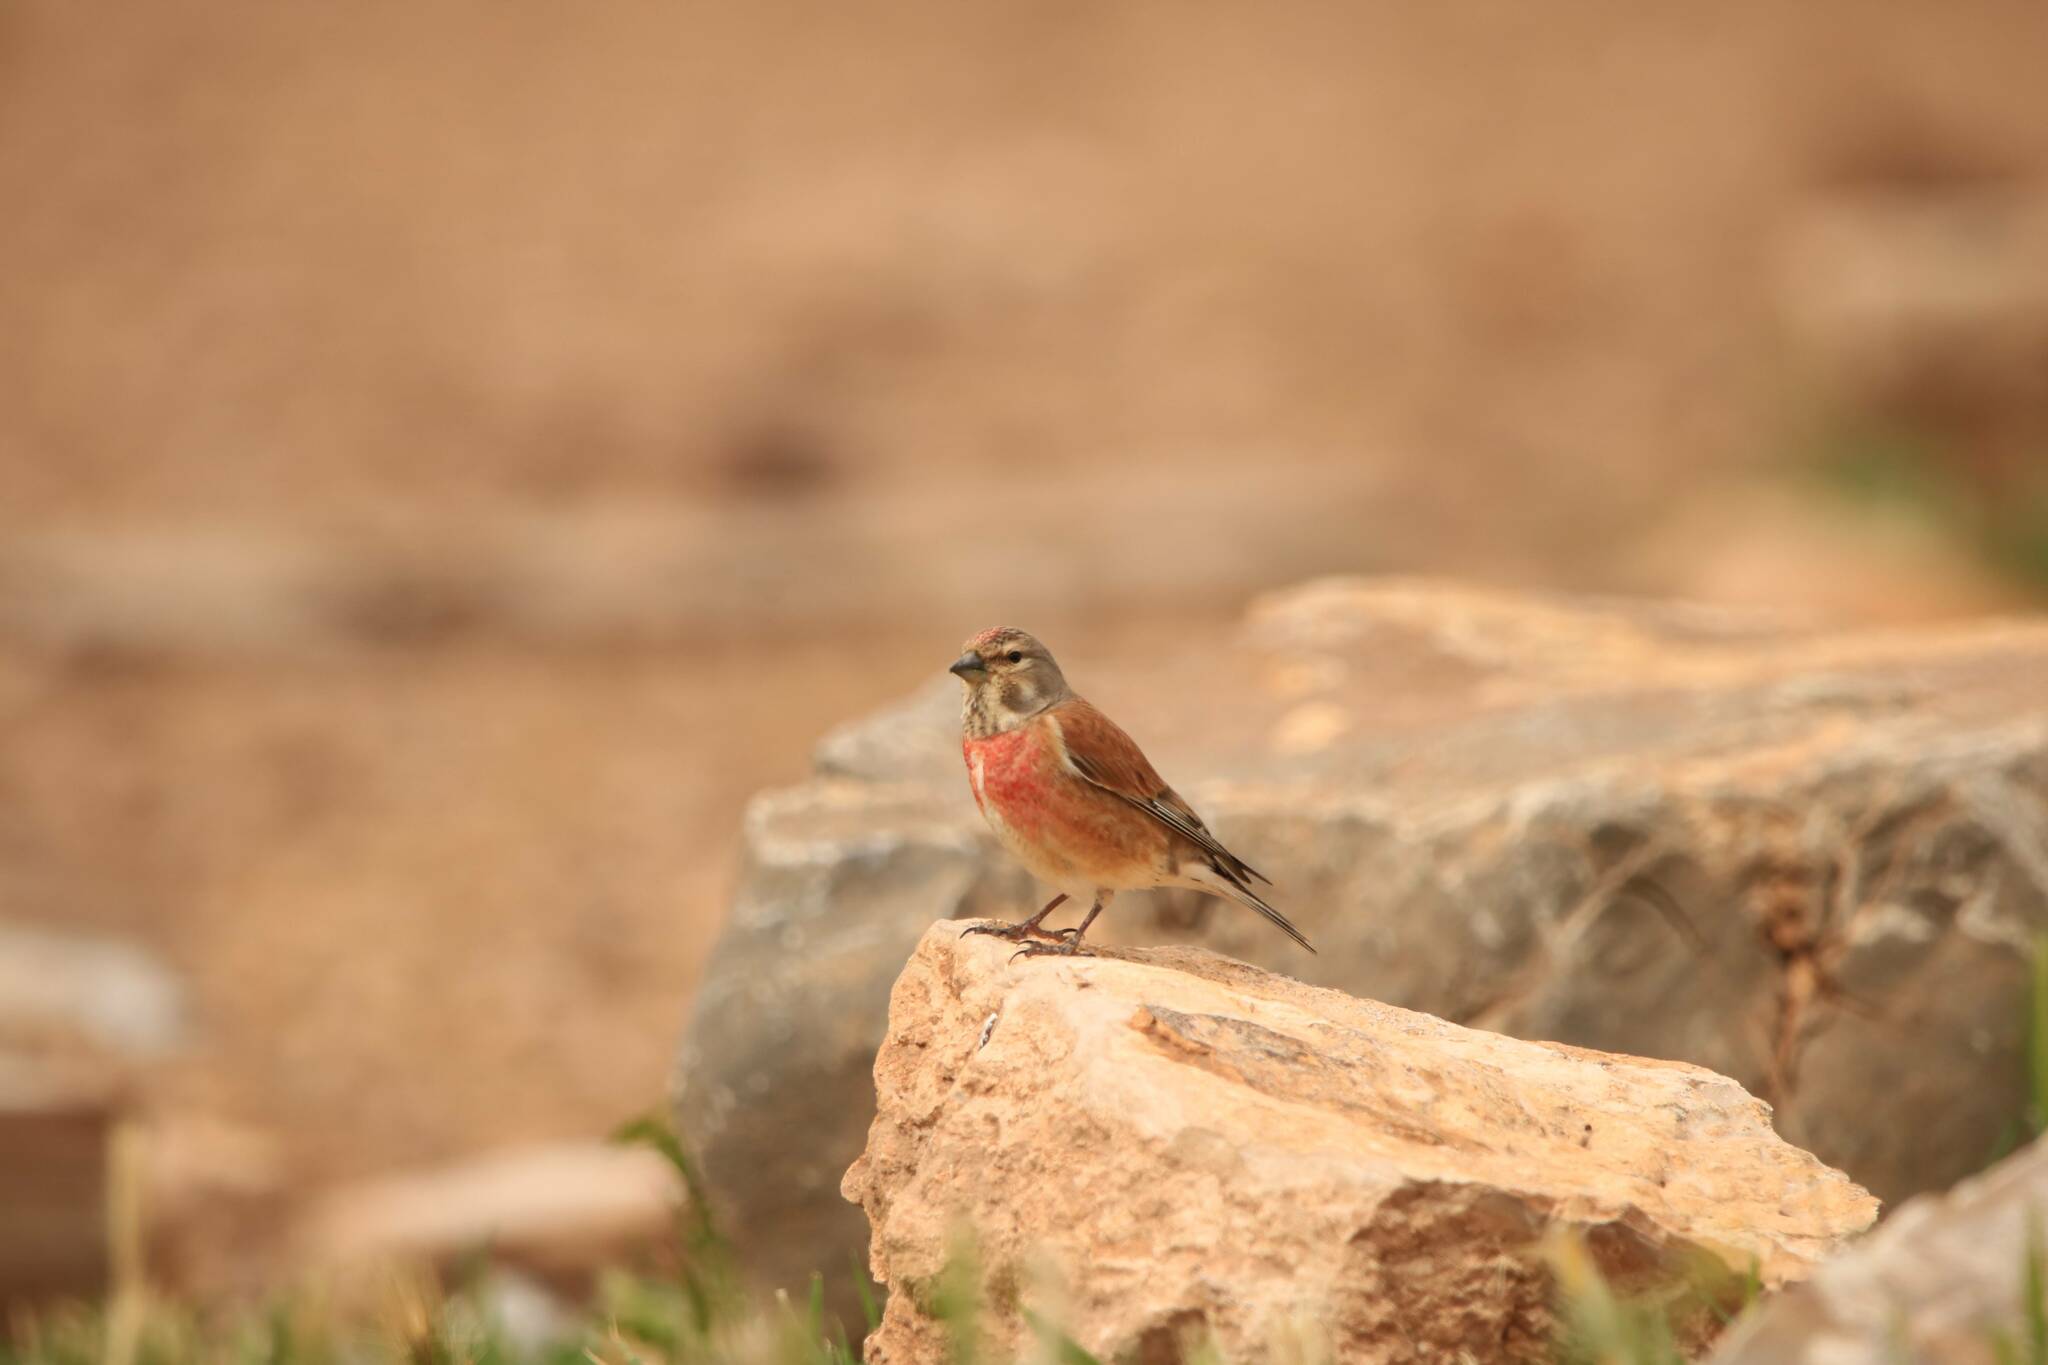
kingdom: Animalia
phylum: Chordata
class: Aves
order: Passeriformes
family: Fringillidae
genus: Linaria
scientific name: Linaria cannabina
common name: Common linnet
